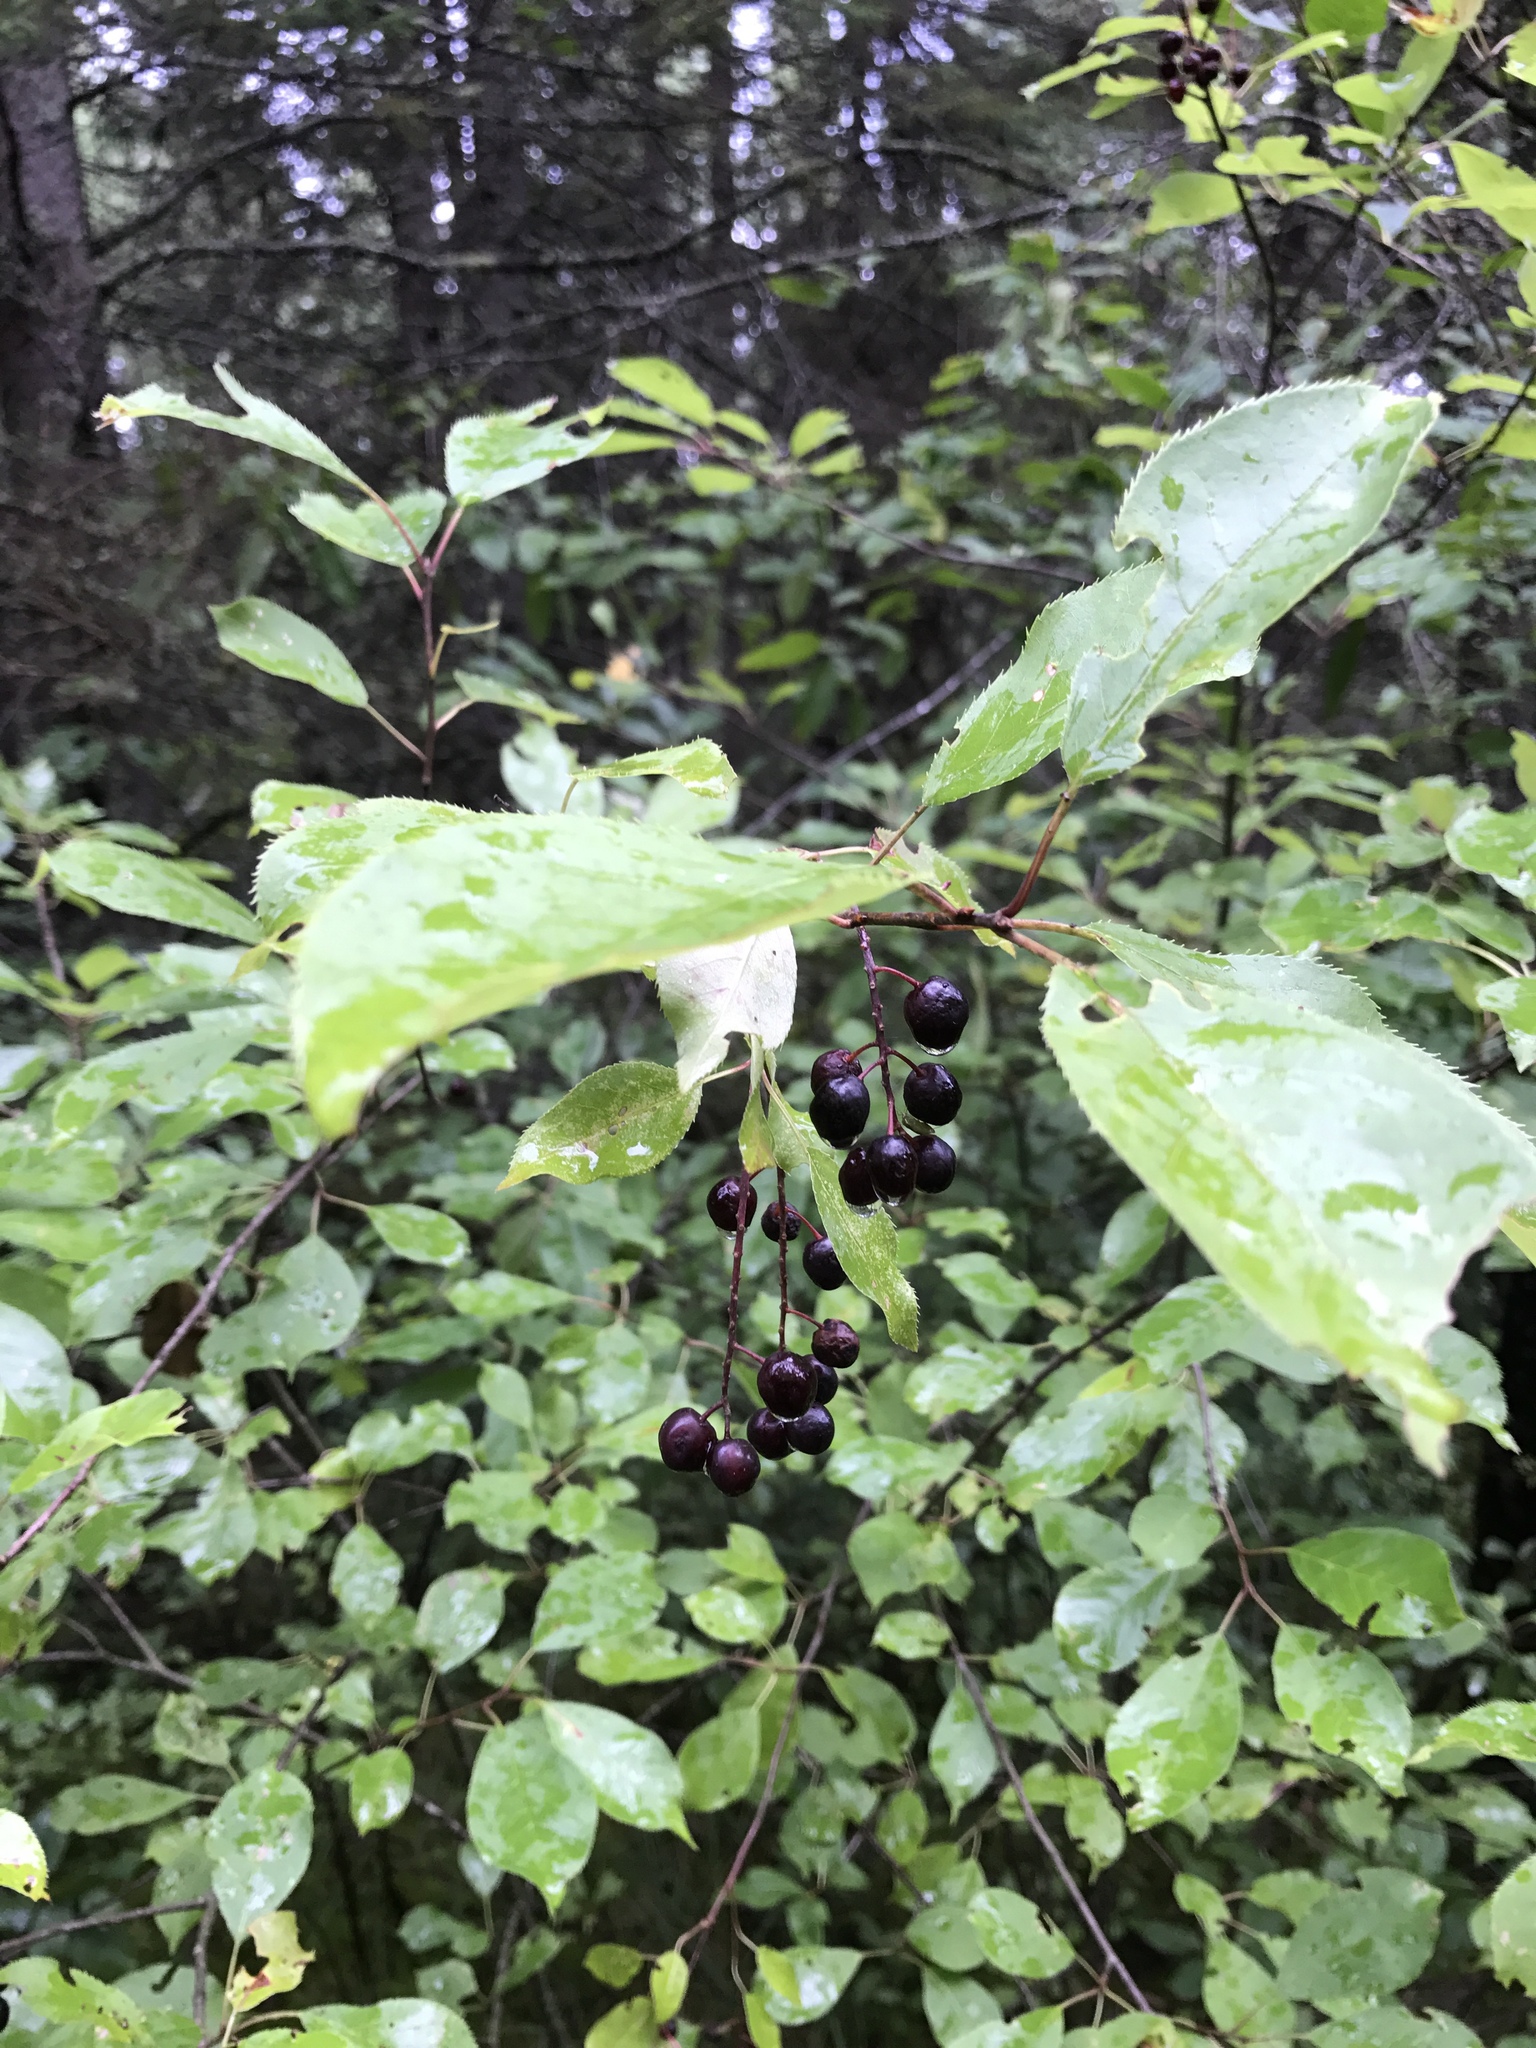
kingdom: Plantae
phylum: Tracheophyta
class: Magnoliopsida
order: Rosales
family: Rosaceae
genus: Prunus
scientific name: Prunus virginiana
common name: Chokecherry
